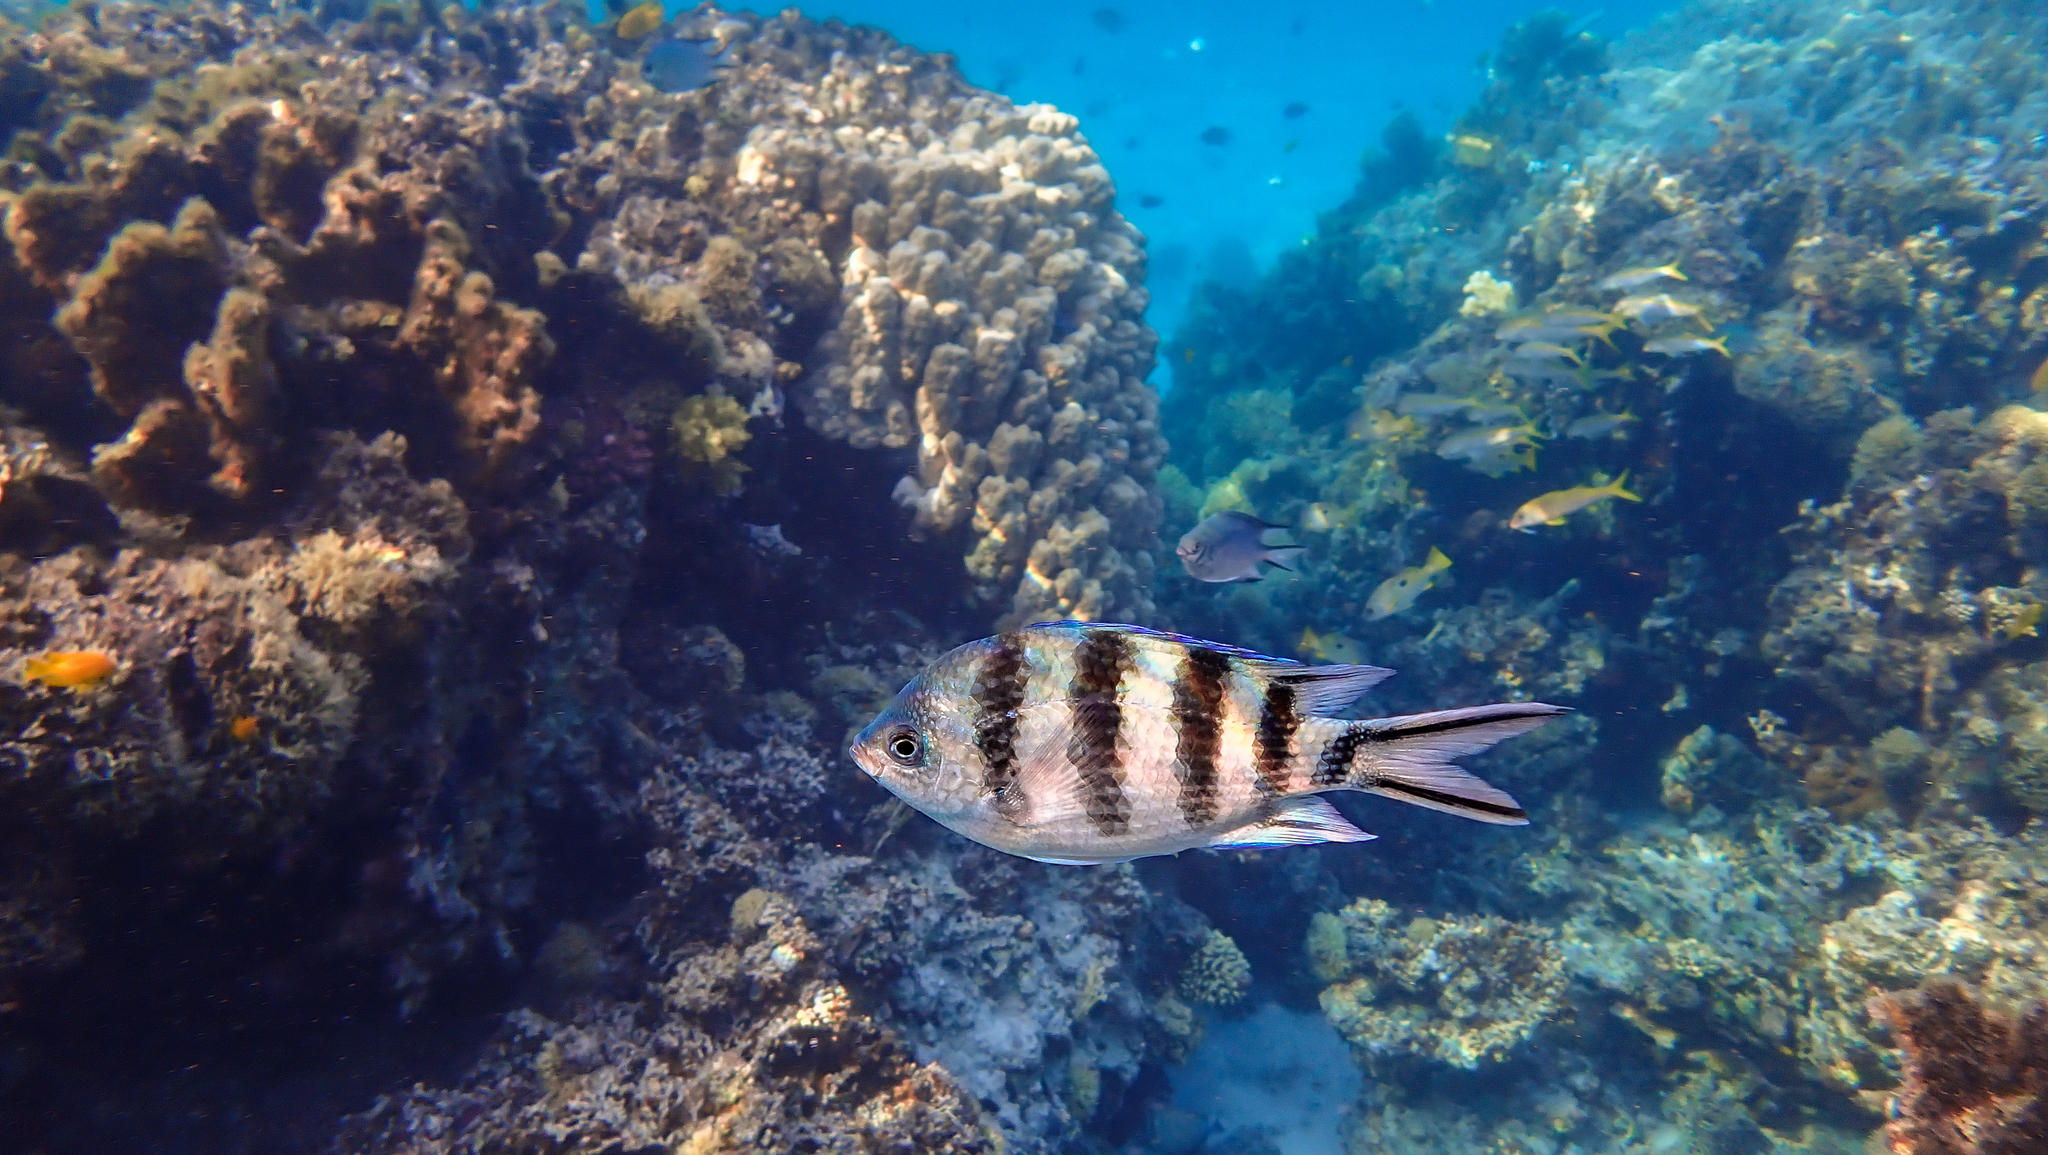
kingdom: Animalia
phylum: Chordata
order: Perciformes
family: Pomacentridae
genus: Abudefduf
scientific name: Abudefduf sexfasciatus
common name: Scissortail sergeant
